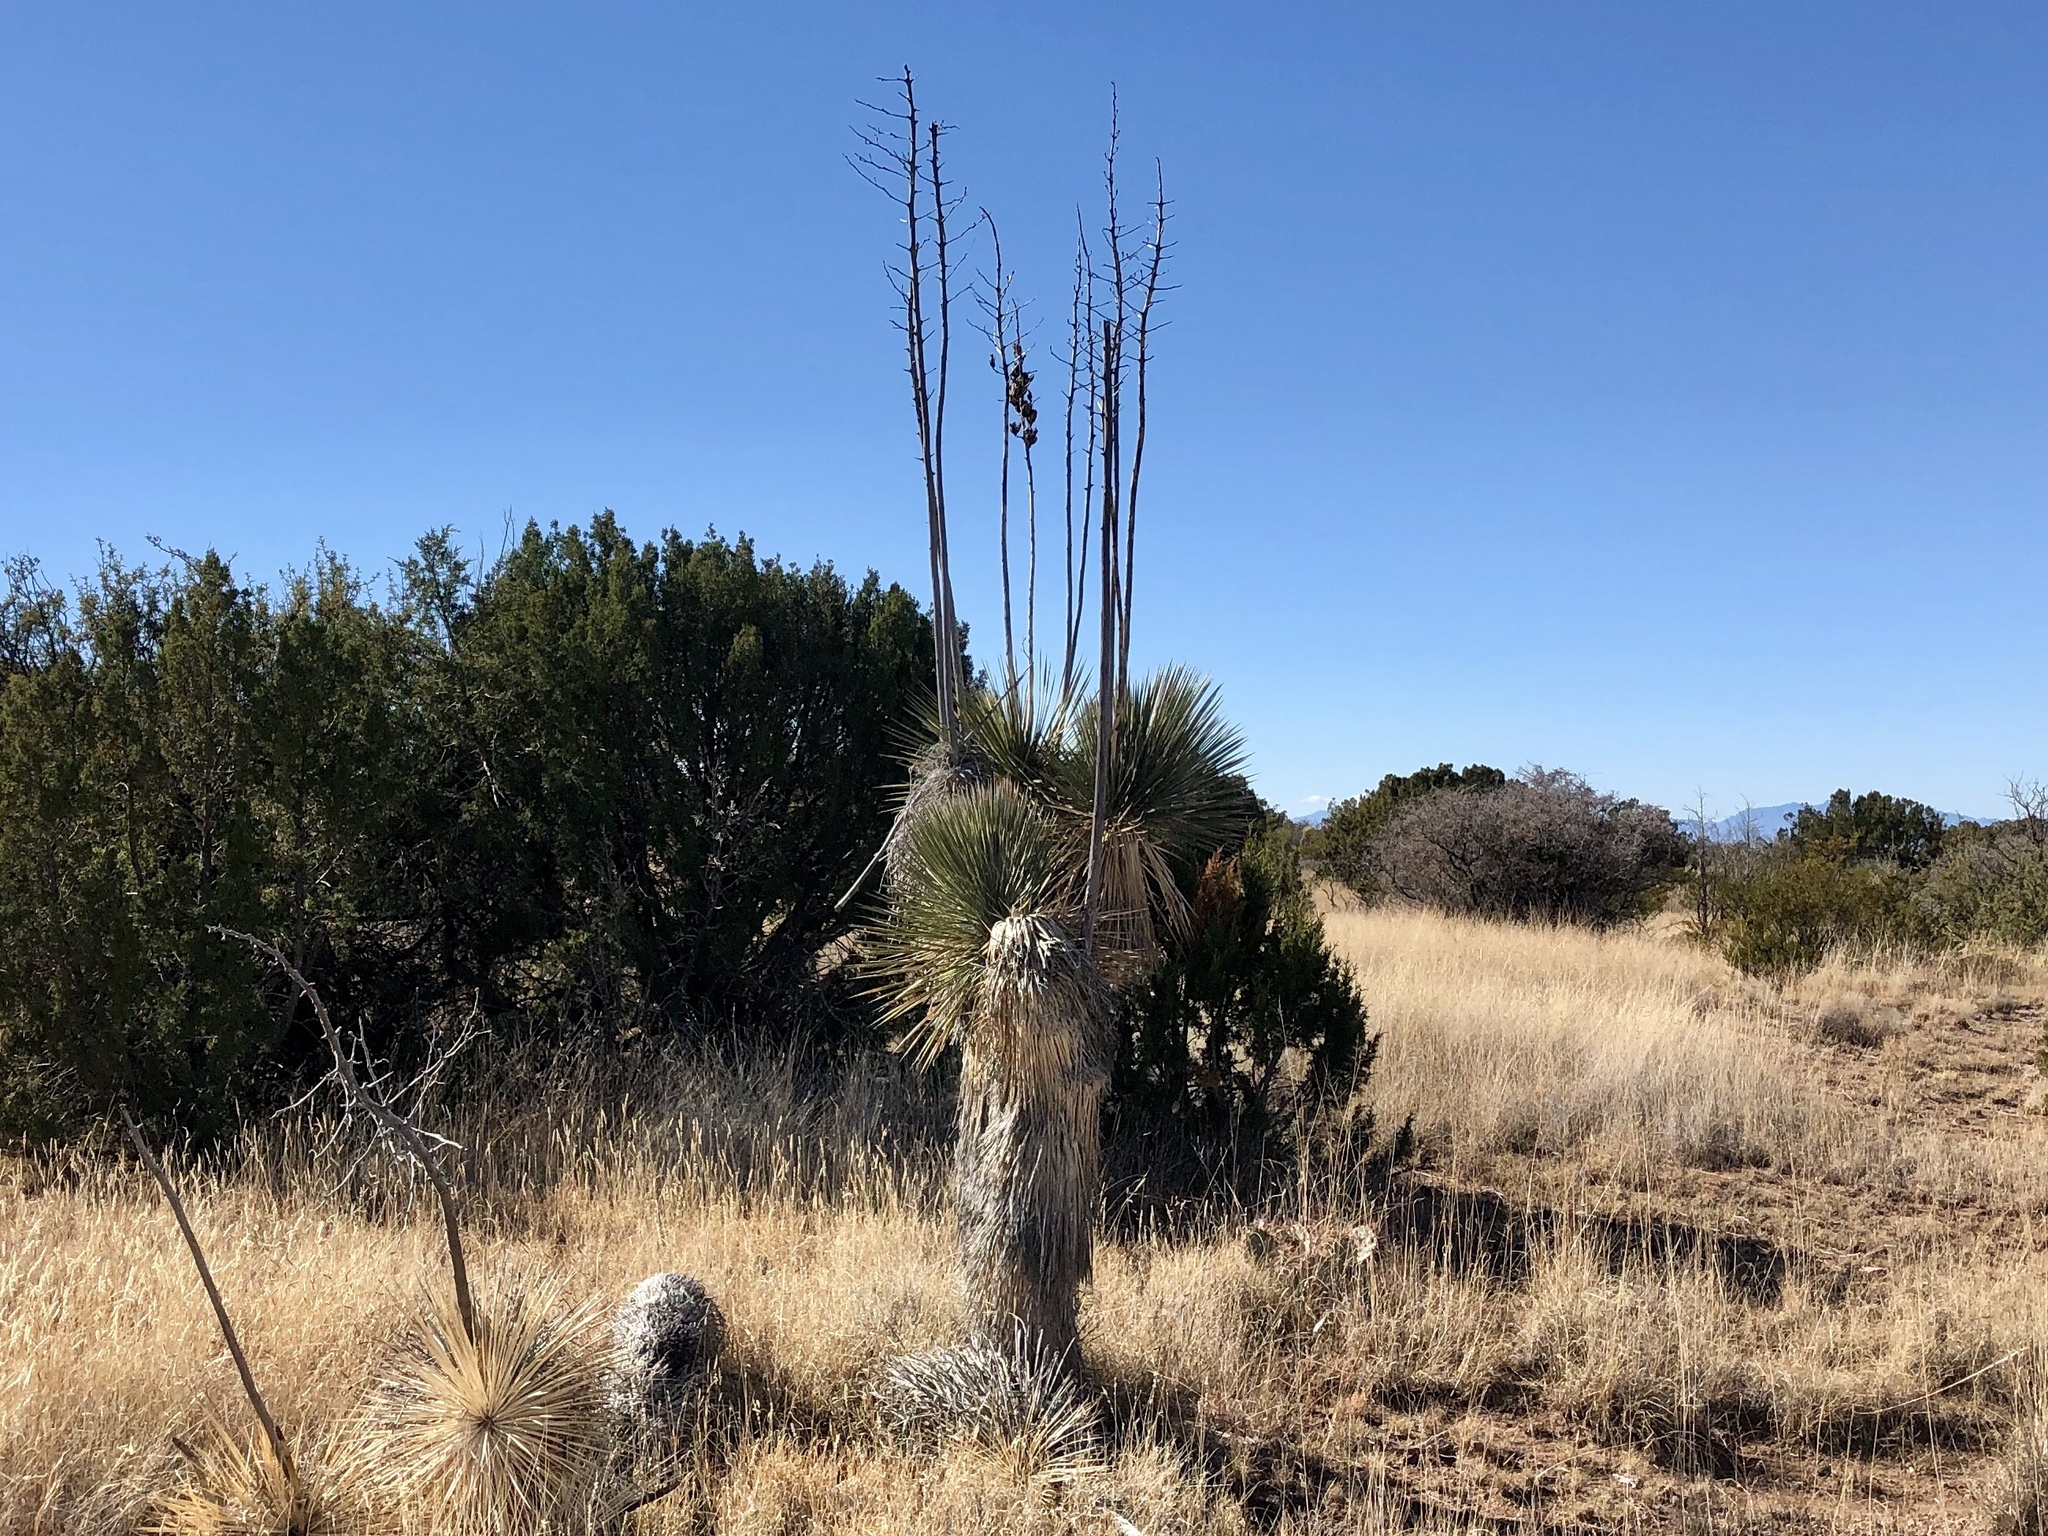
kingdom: Plantae
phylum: Tracheophyta
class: Liliopsida
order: Asparagales
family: Asparagaceae
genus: Yucca
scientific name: Yucca elata
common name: Palmella
